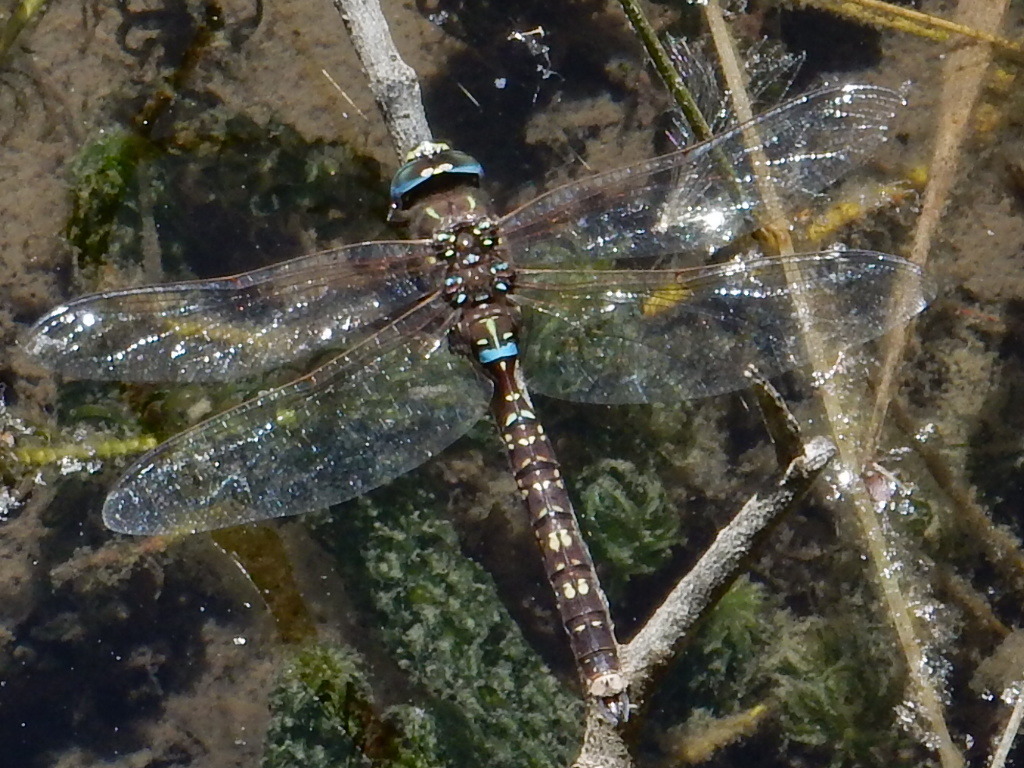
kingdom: Animalia
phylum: Arthropoda
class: Insecta
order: Odonata
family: Aeshnidae
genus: Aeshna
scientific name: Aeshna brevistyla
